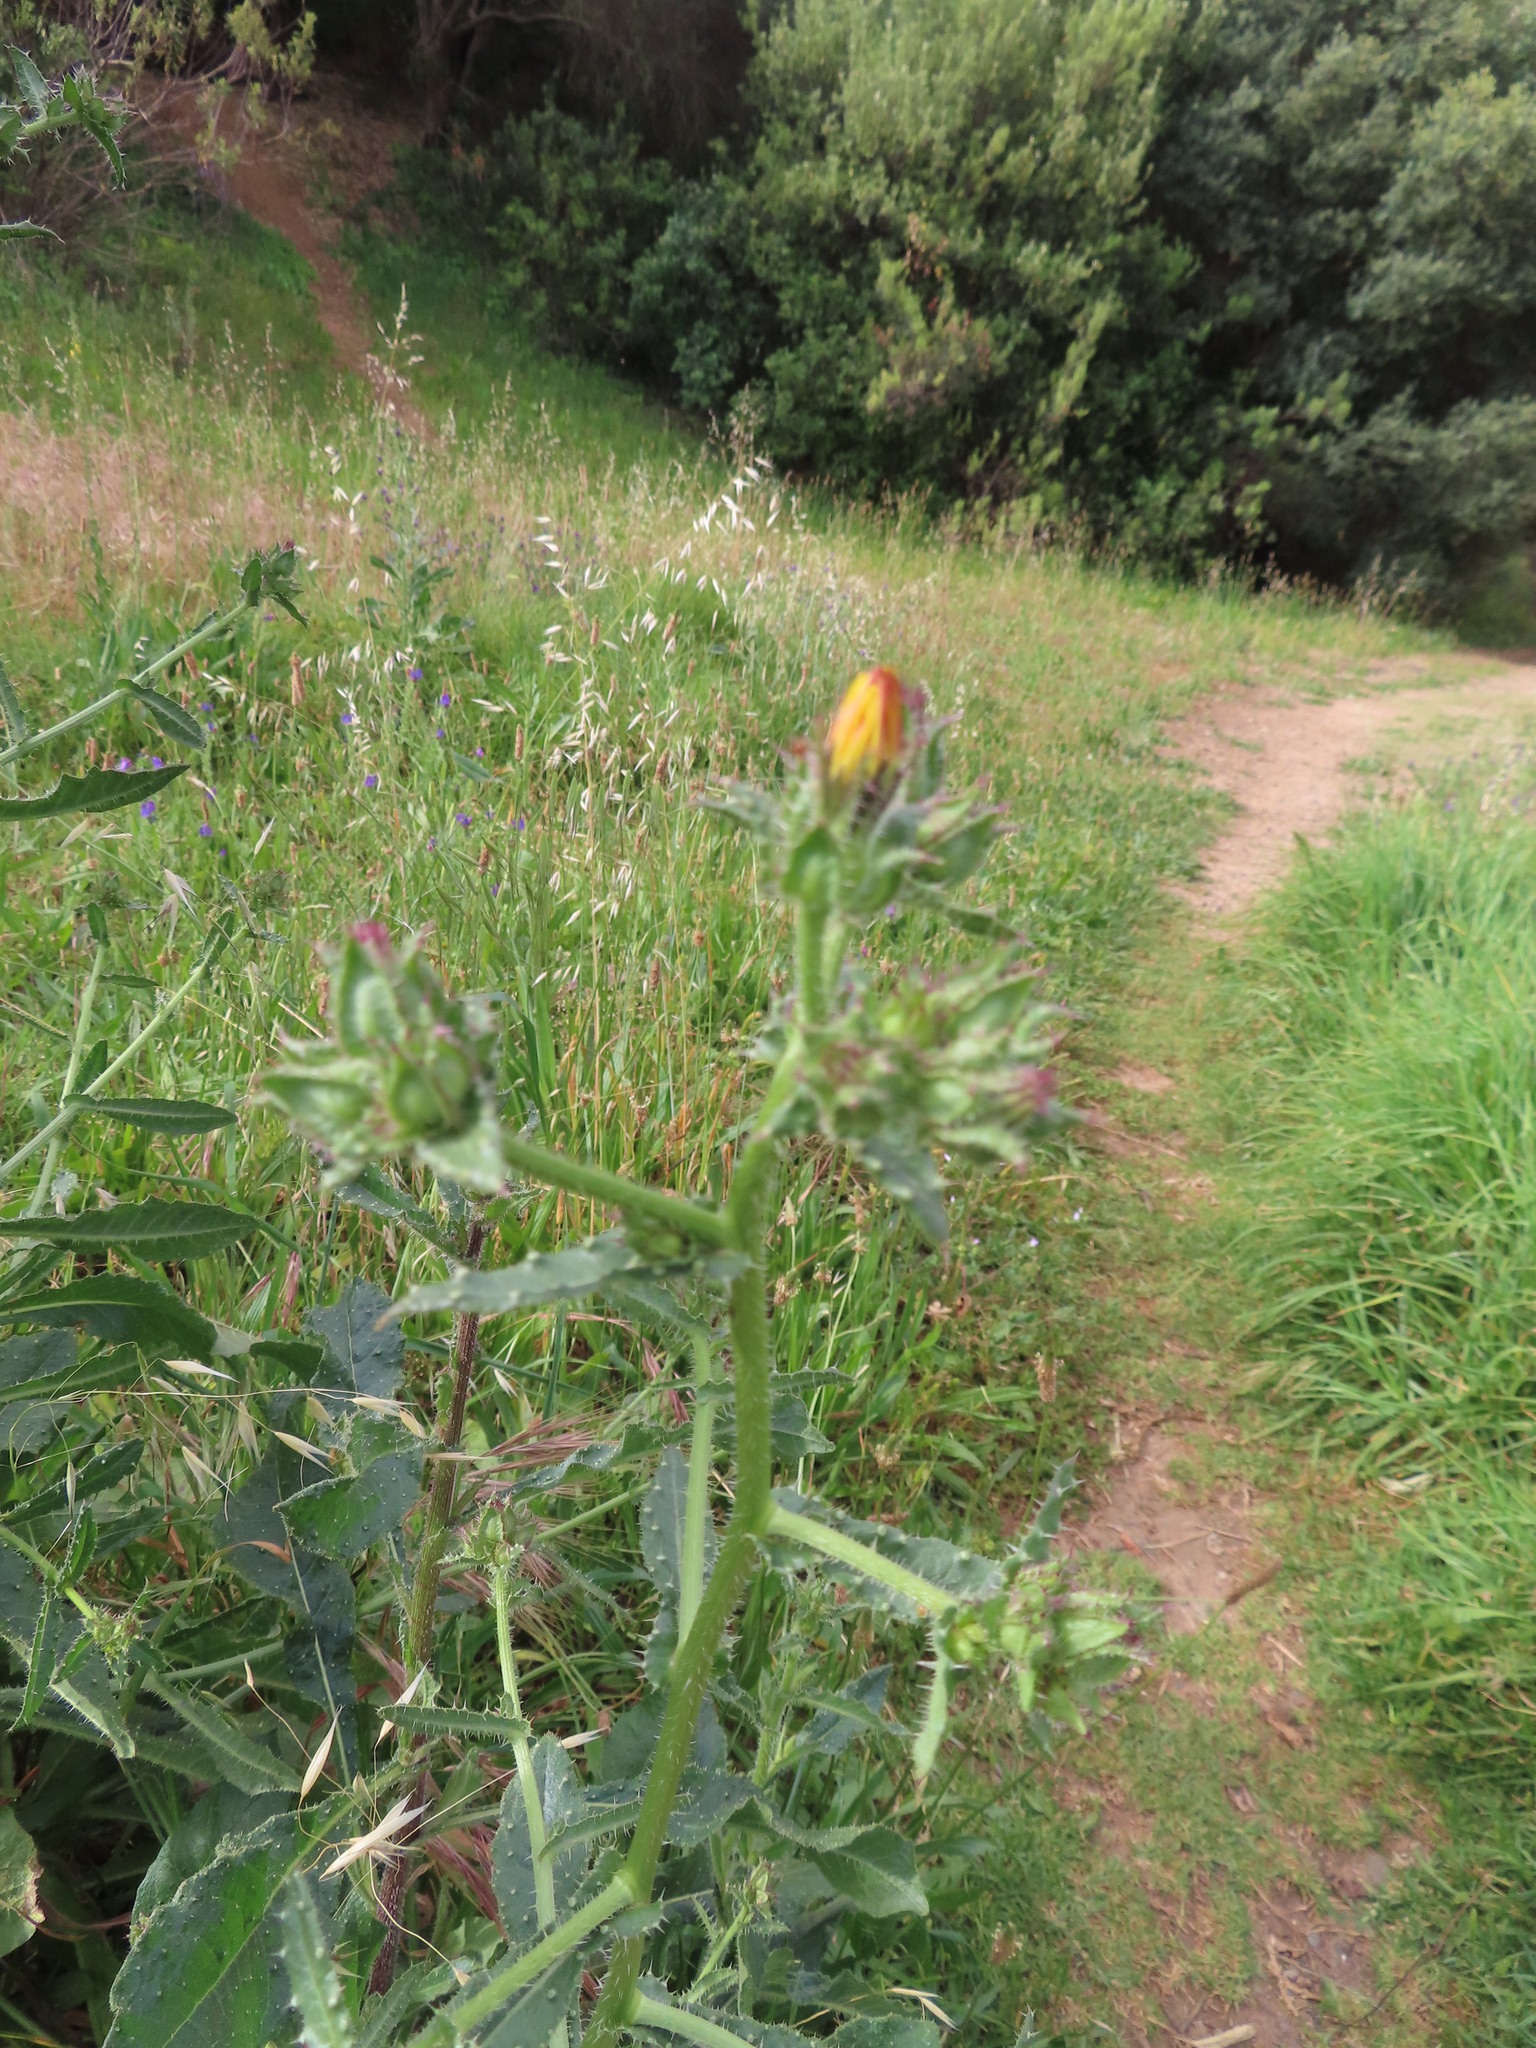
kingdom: Plantae
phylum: Tracheophyta
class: Magnoliopsida
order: Asterales
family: Asteraceae
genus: Helminthotheca
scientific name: Helminthotheca echioides
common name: Ox-tongue
